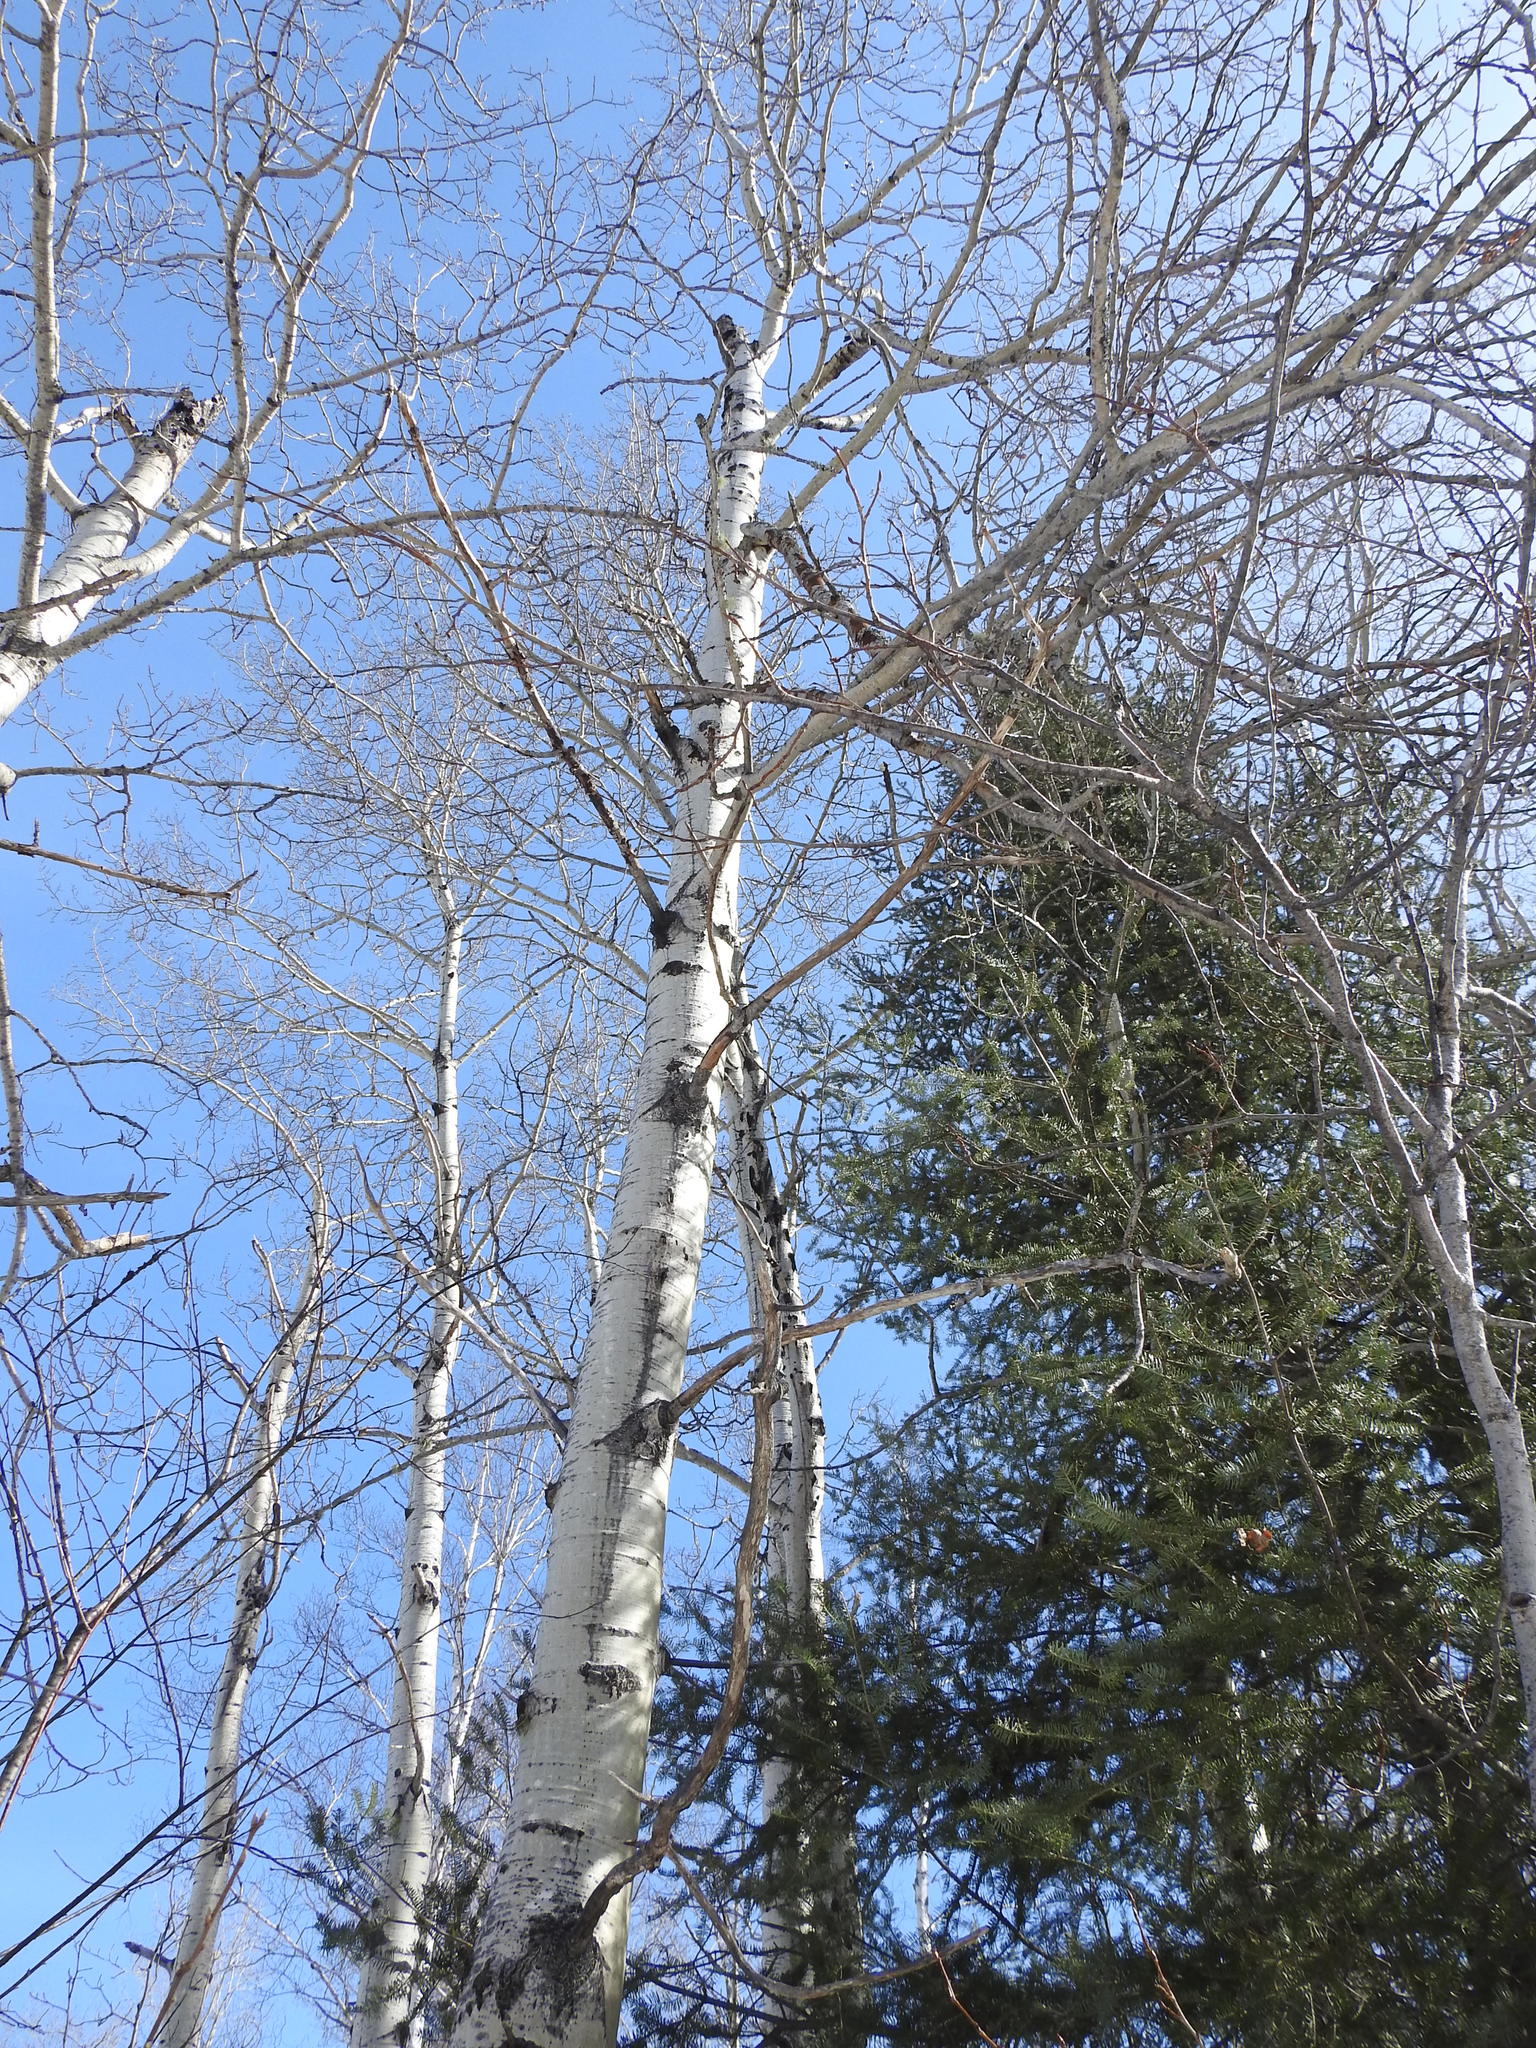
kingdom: Plantae
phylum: Tracheophyta
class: Magnoliopsida
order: Malpighiales
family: Salicaceae
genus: Populus
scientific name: Populus tremuloides
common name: Quaking aspen
